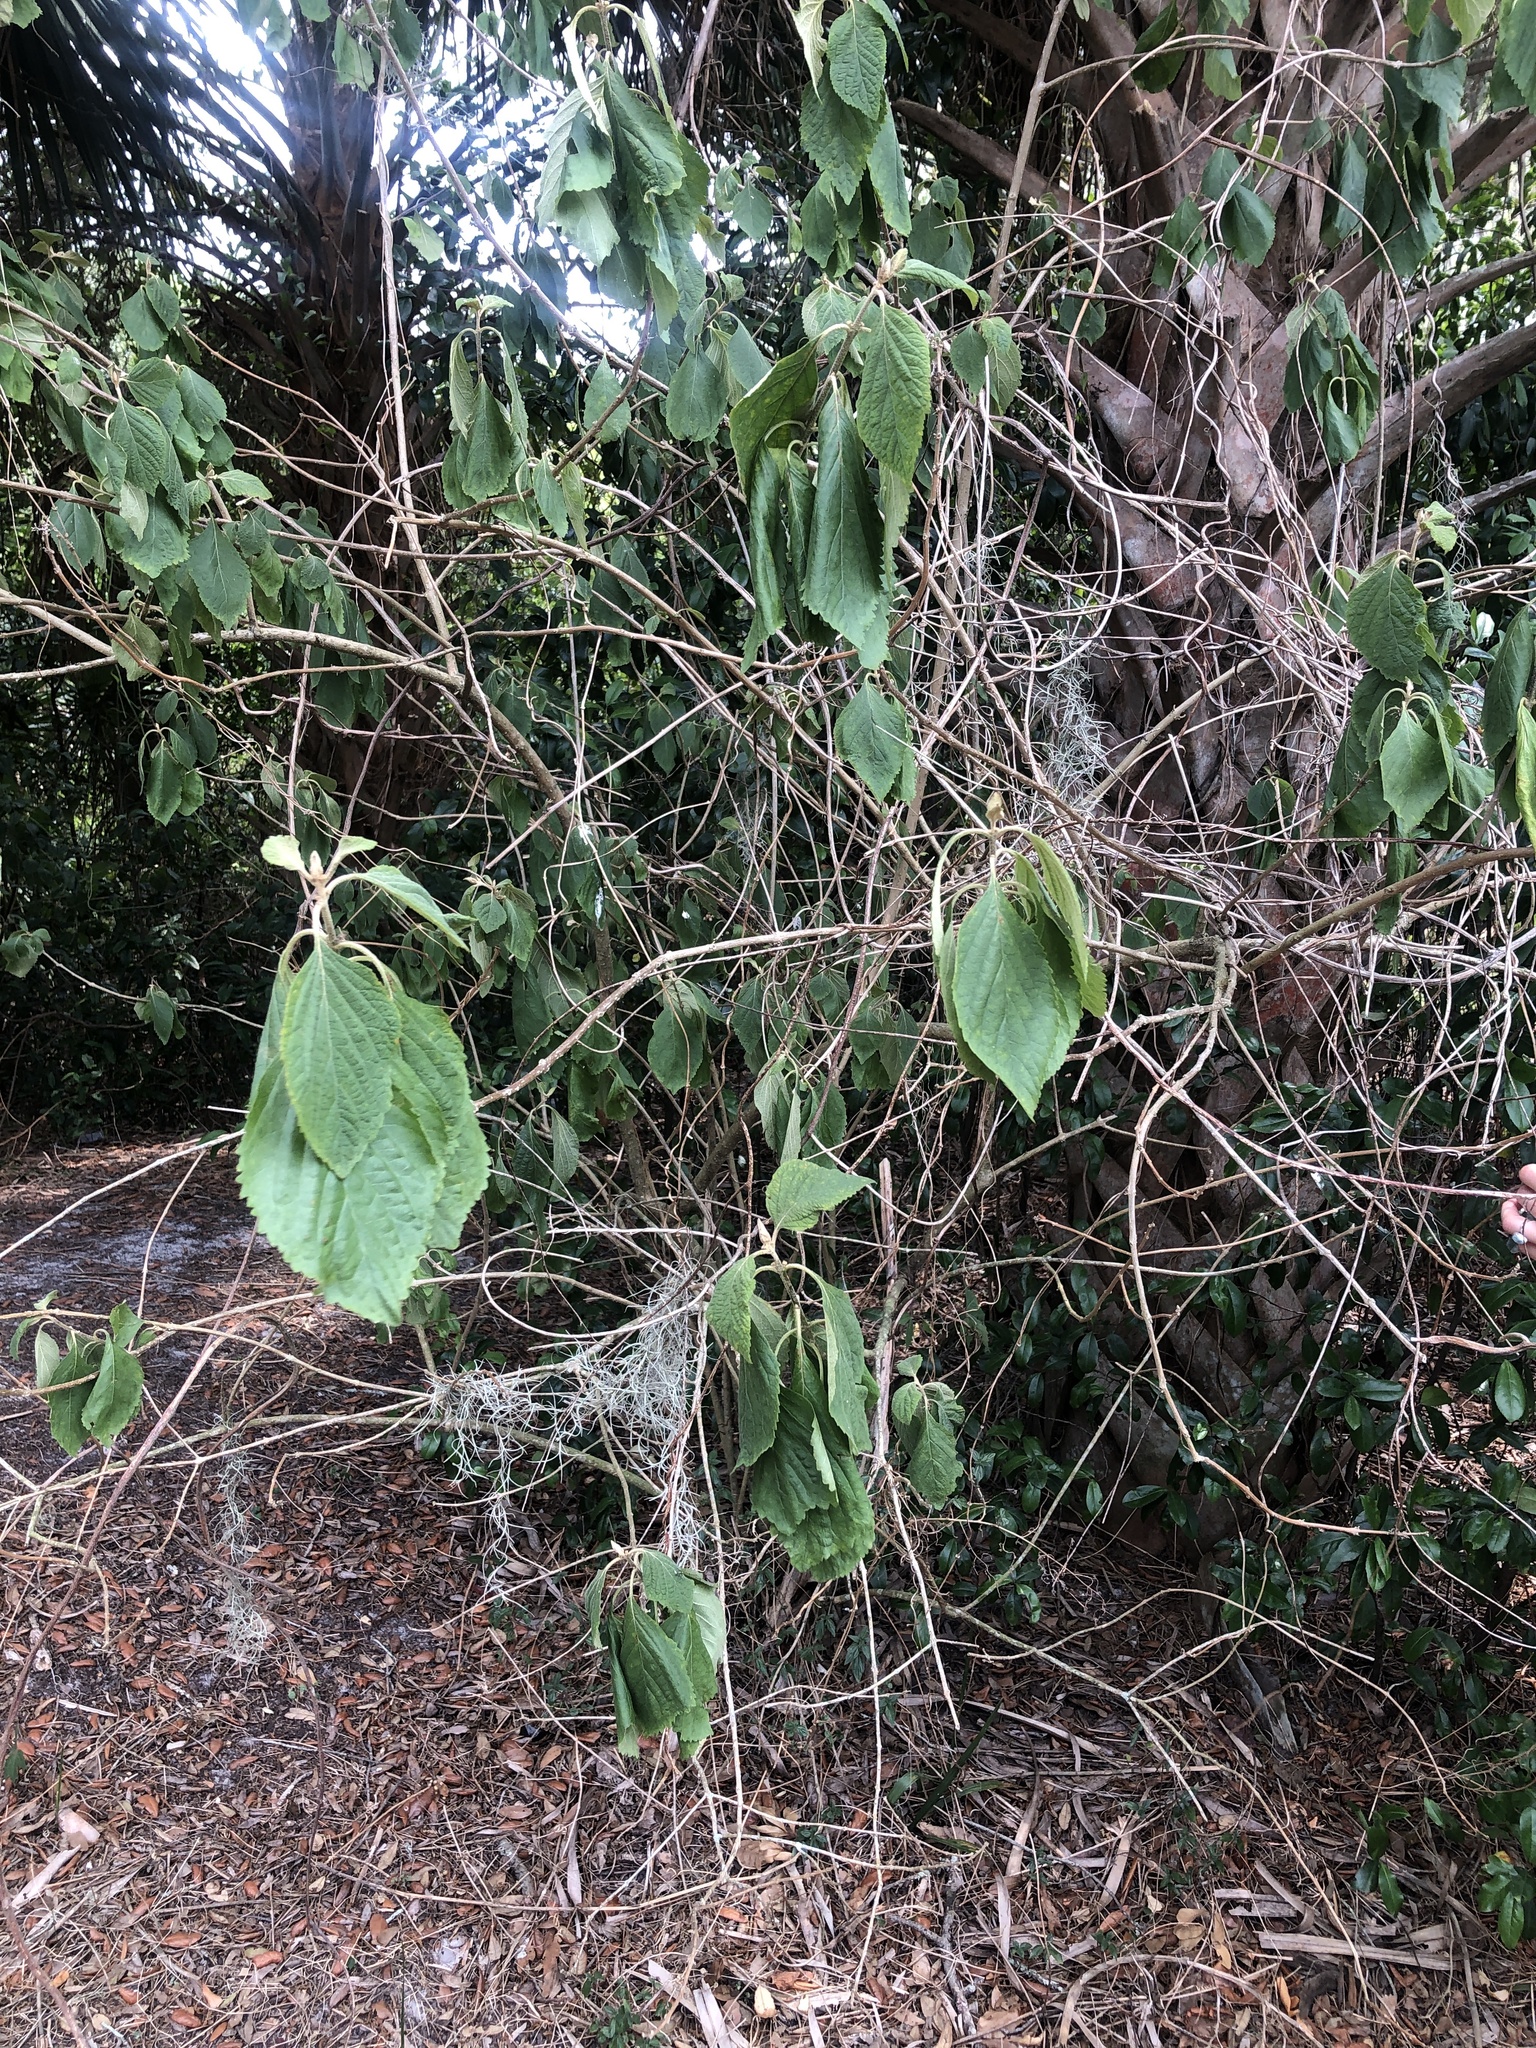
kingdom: Plantae
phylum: Tracheophyta
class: Magnoliopsida
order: Lamiales
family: Lamiaceae
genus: Callicarpa
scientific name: Callicarpa americana
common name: American beautyberry
